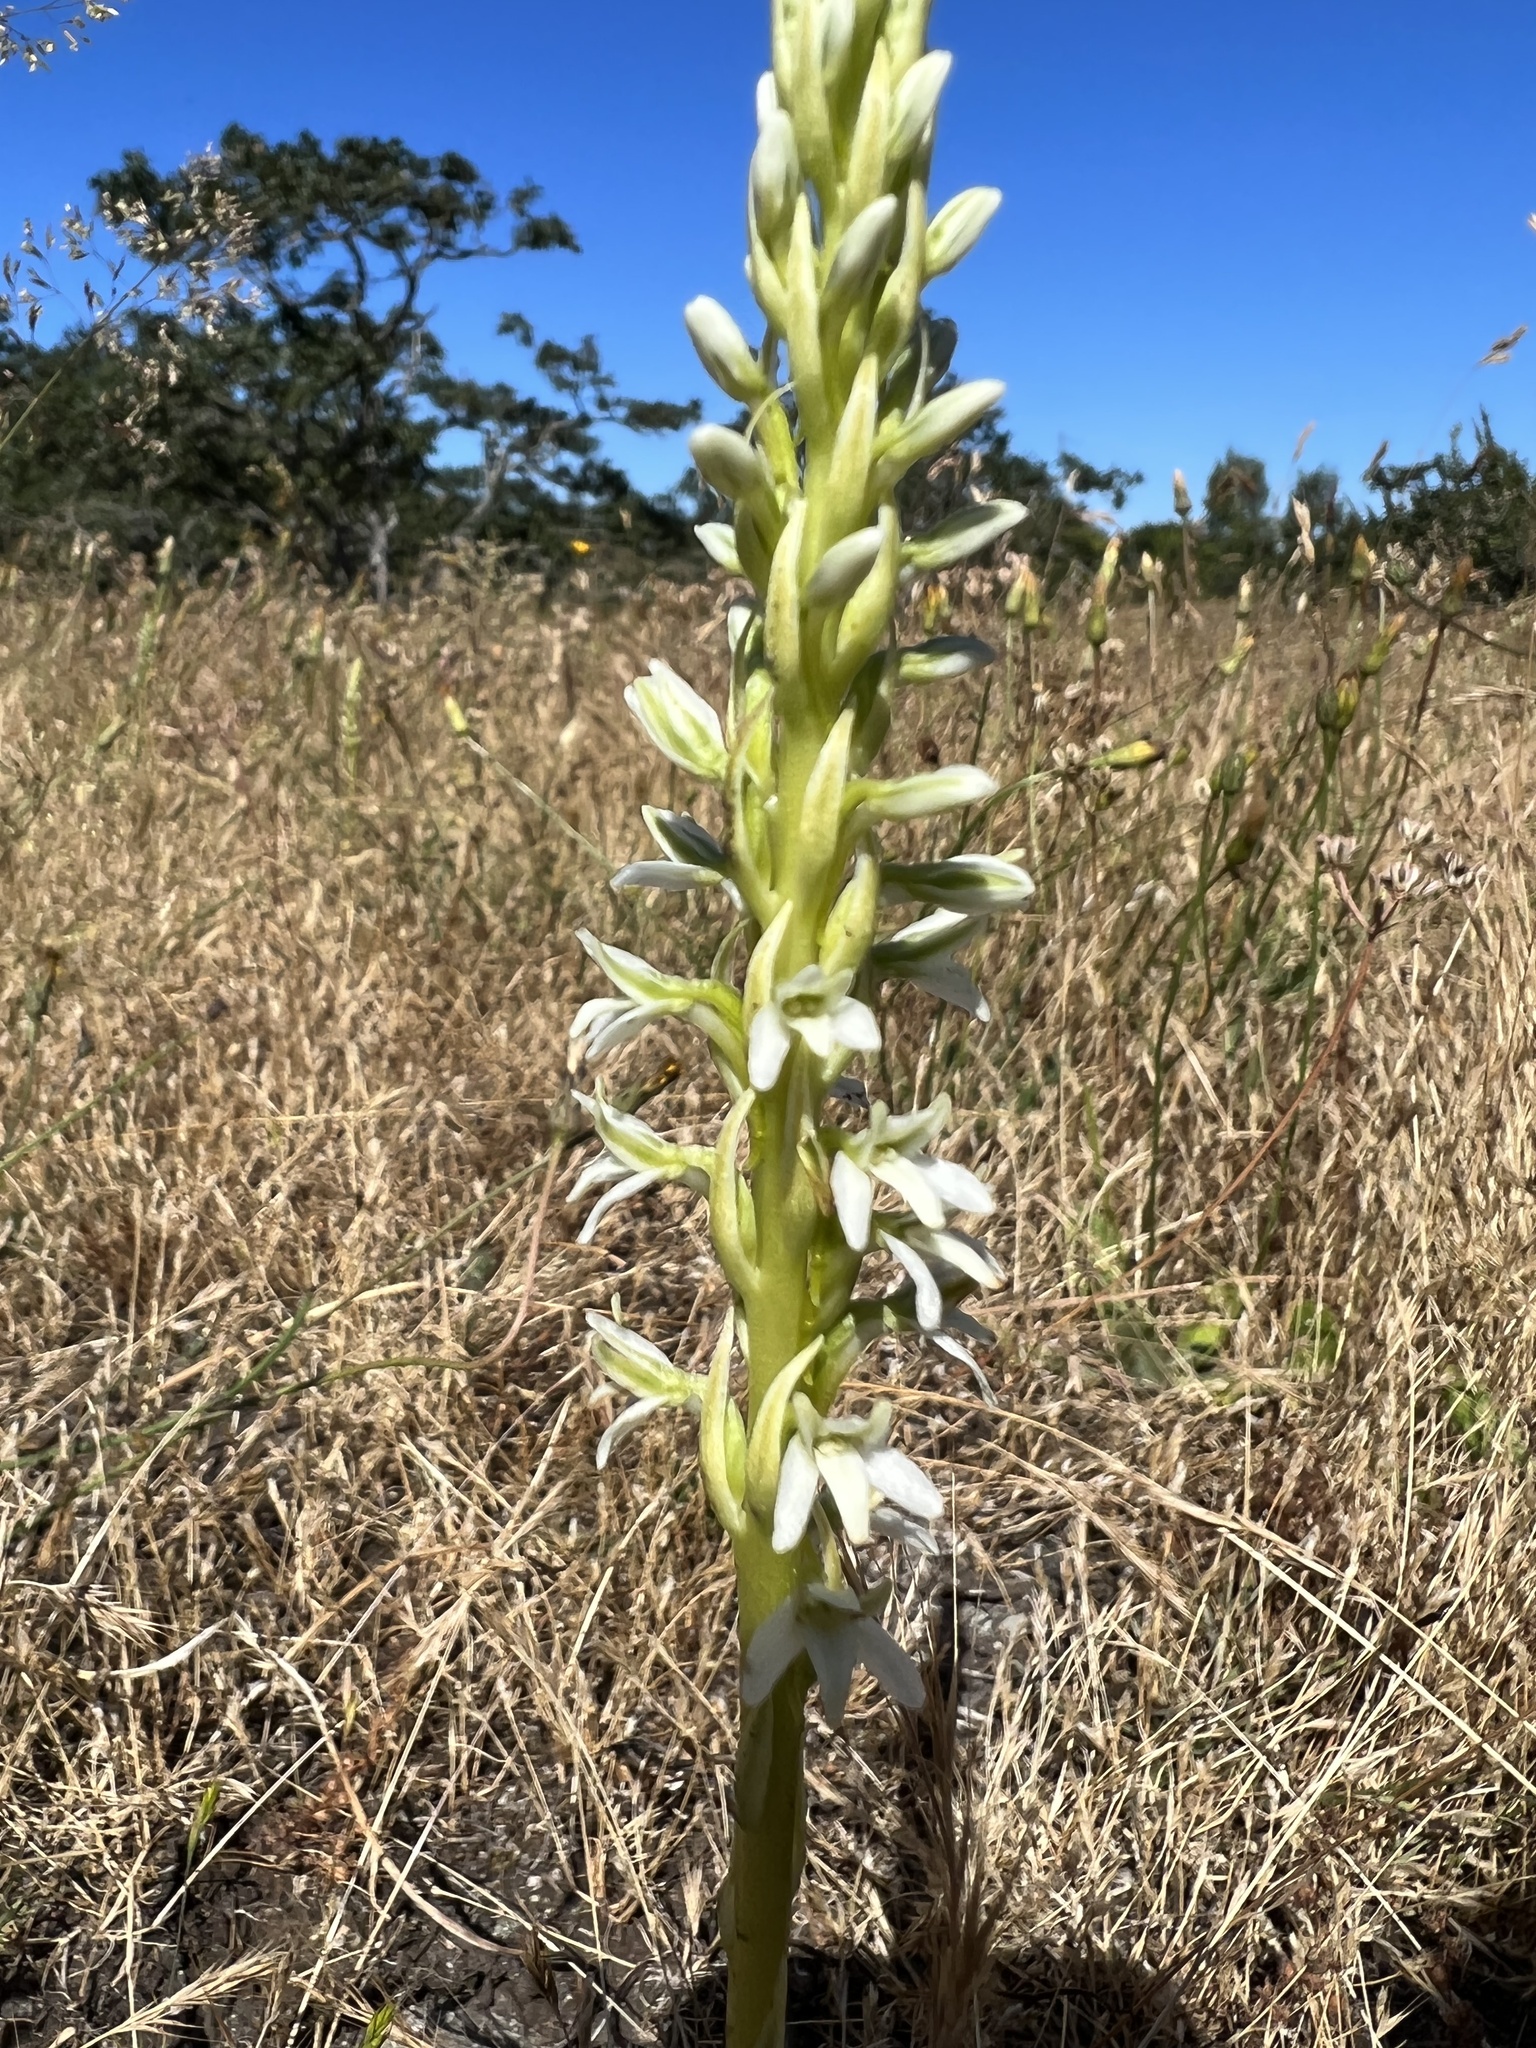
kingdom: Plantae
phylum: Tracheophyta
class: Liliopsida
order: Asparagales
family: Orchidaceae
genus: Platanthera
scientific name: Platanthera elegans
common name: Coast piperia
